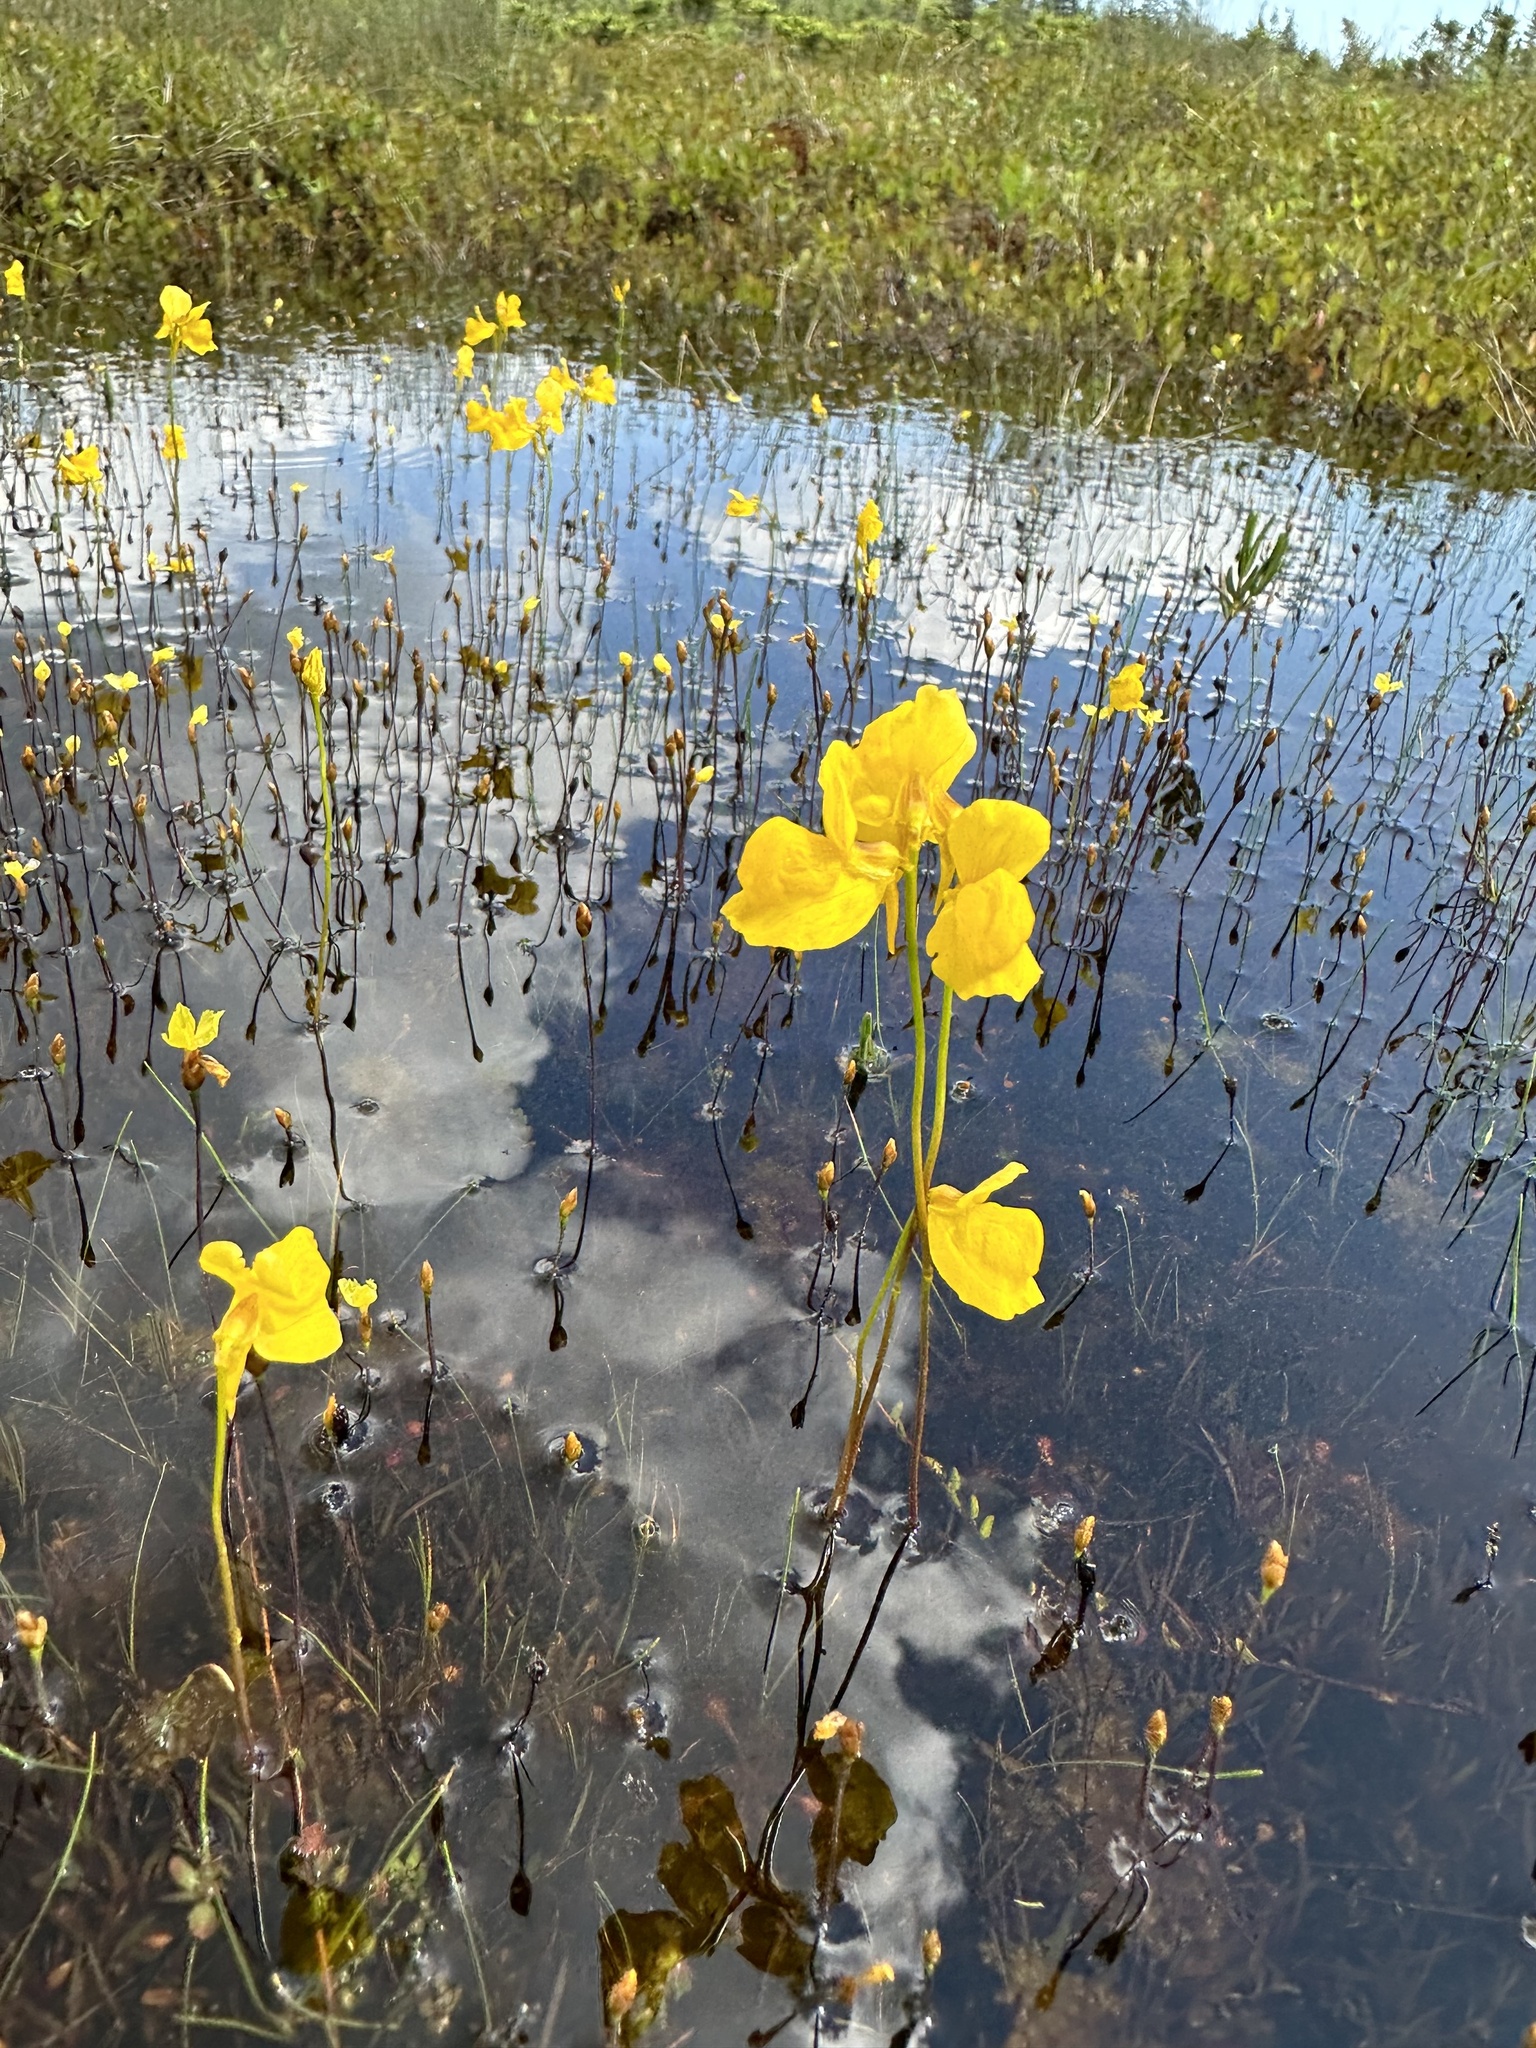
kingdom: Plantae
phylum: Tracheophyta
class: Magnoliopsida
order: Lamiales
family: Lentibulariaceae
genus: Utricularia
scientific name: Utricularia cornuta
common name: Horned bladderwort
